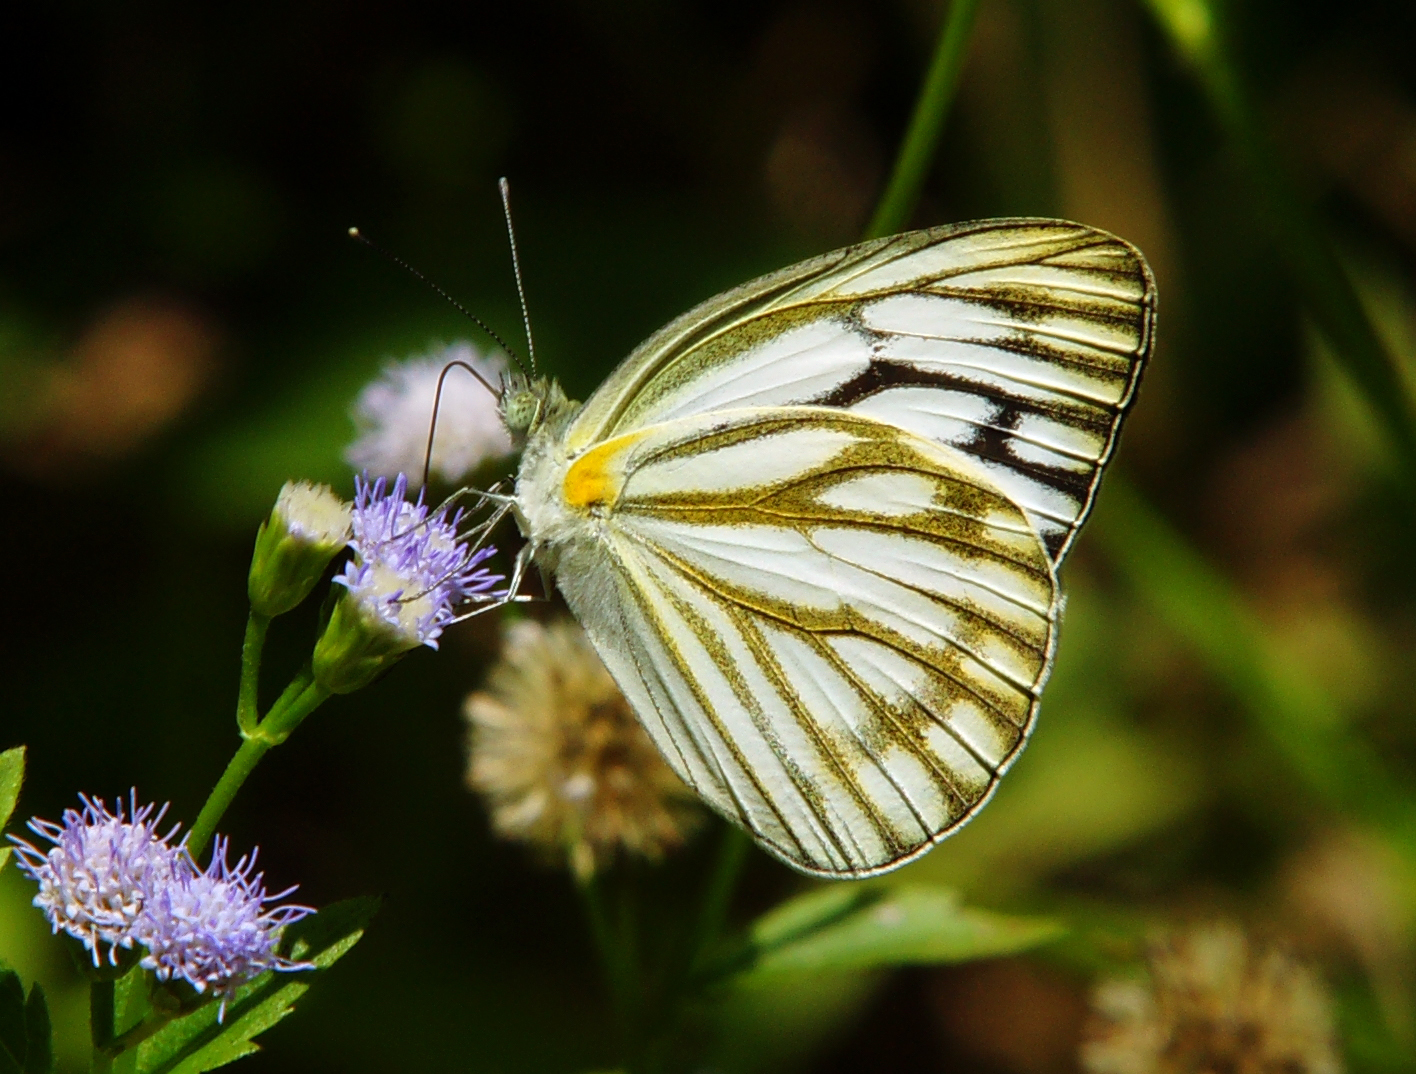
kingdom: Animalia
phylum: Arthropoda
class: Insecta
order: Lepidoptera
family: Pieridae
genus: Cepora
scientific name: Cepora nerissa
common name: Common gull
